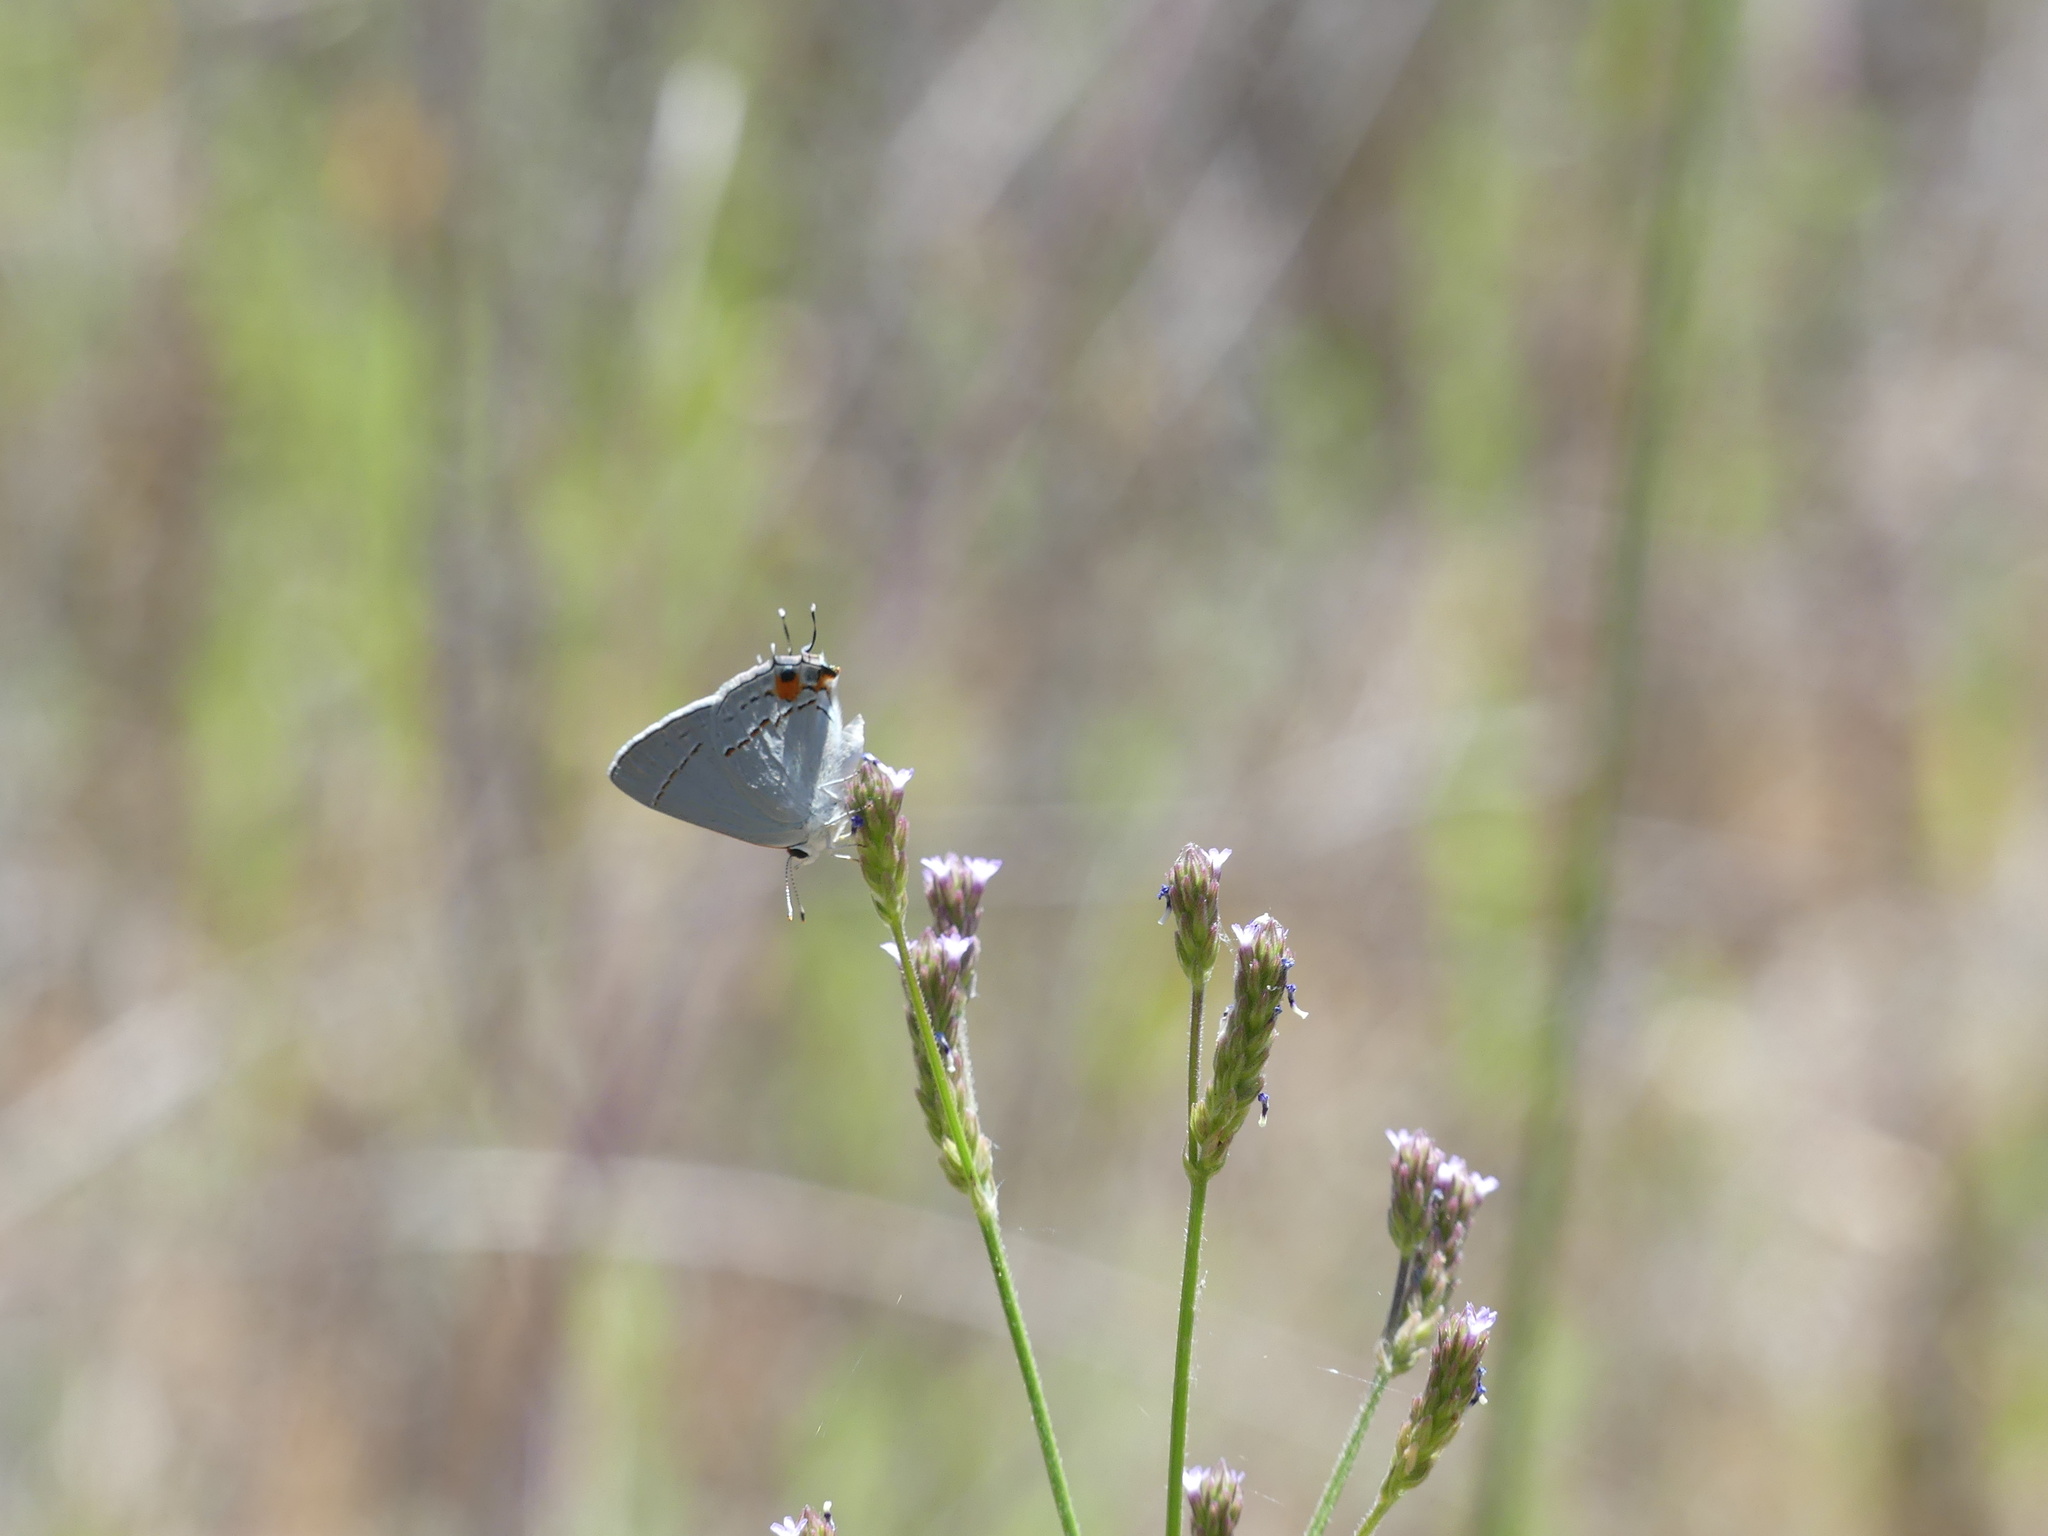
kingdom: Animalia
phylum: Arthropoda
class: Insecta
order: Lepidoptera
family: Lycaenidae
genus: Strymon
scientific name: Strymon melinus
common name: Gray hairstreak
